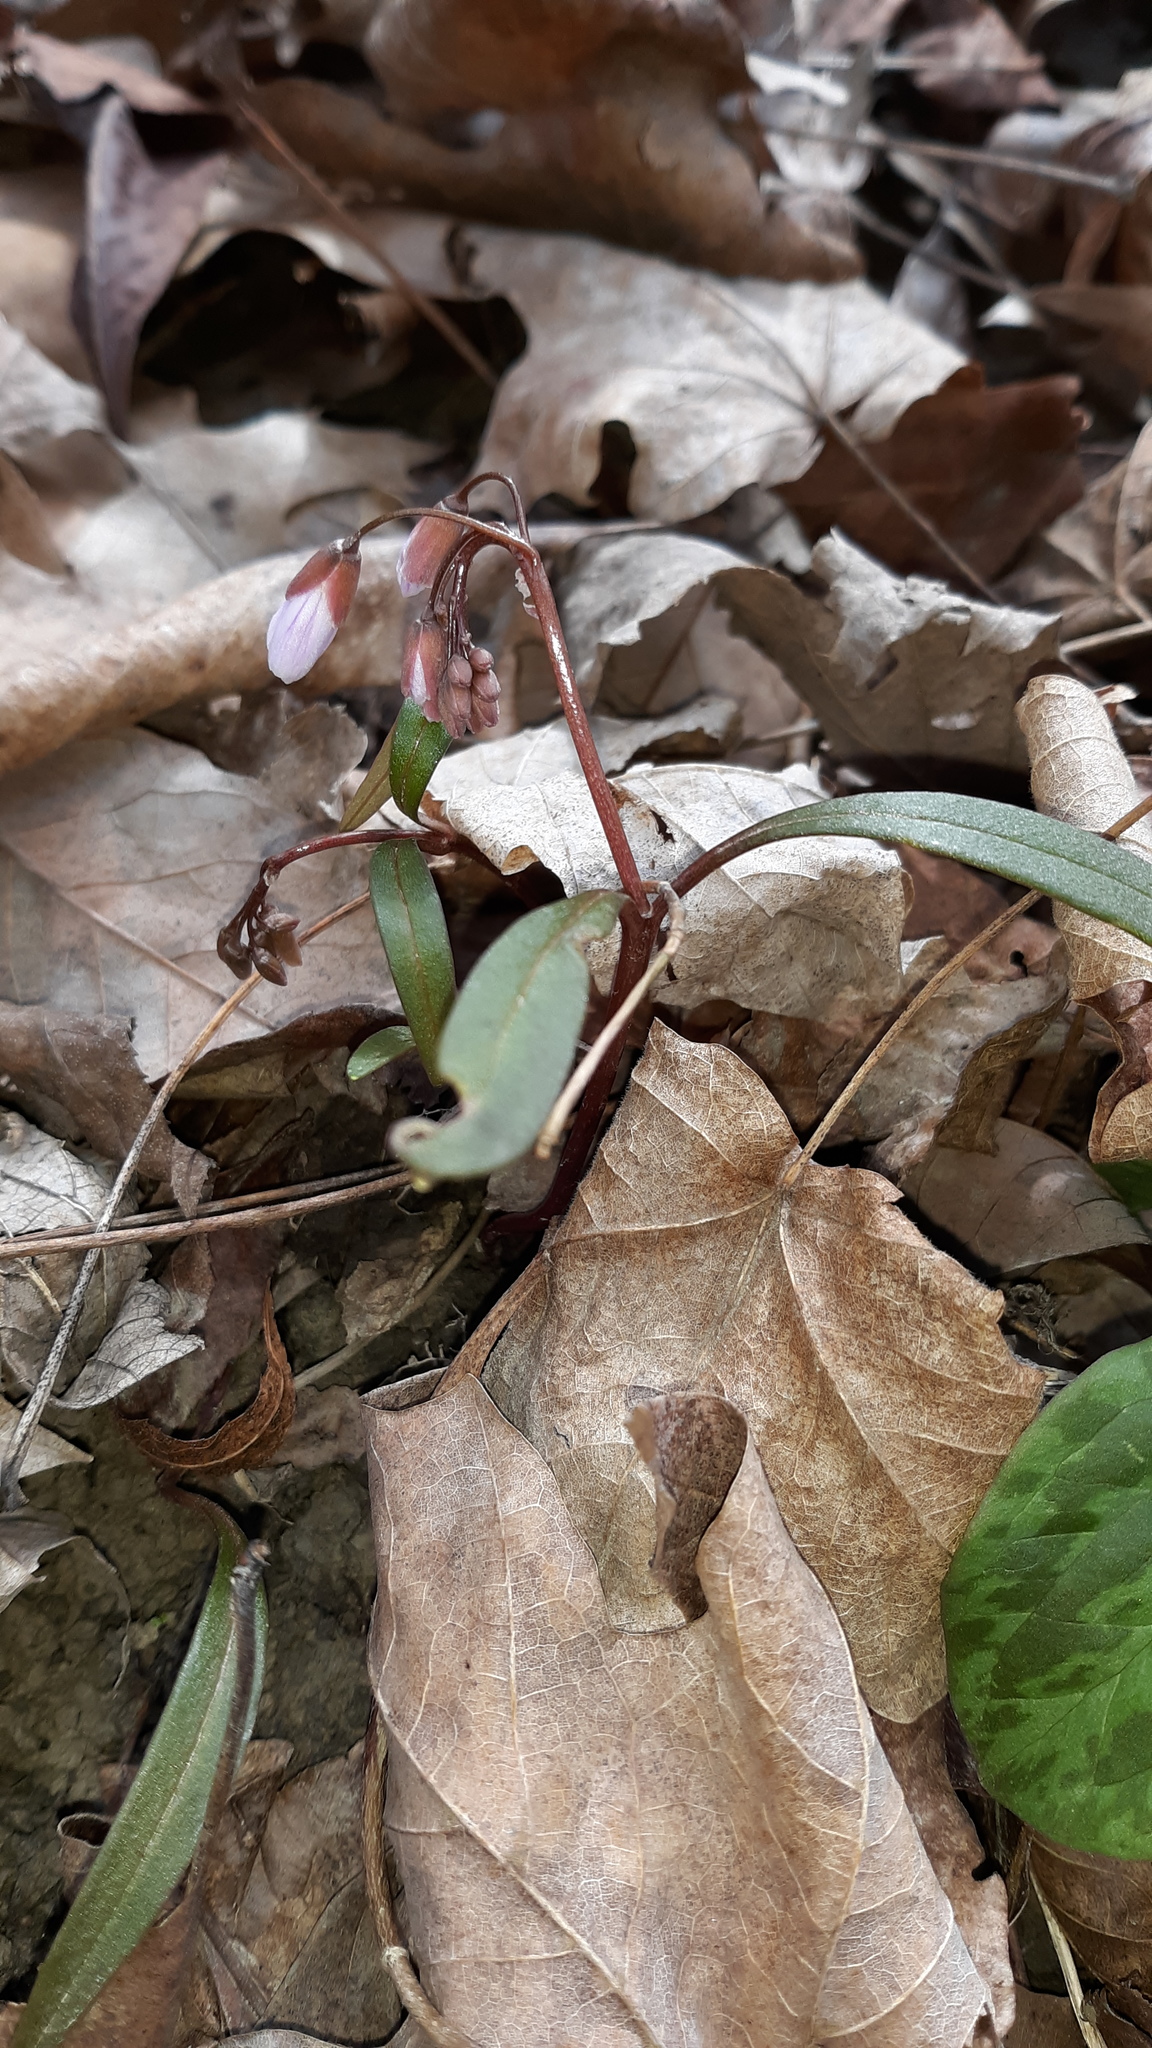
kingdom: Plantae
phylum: Tracheophyta
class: Magnoliopsida
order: Caryophyllales
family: Montiaceae
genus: Claytonia
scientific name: Claytonia virginica
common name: Virginia springbeauty
